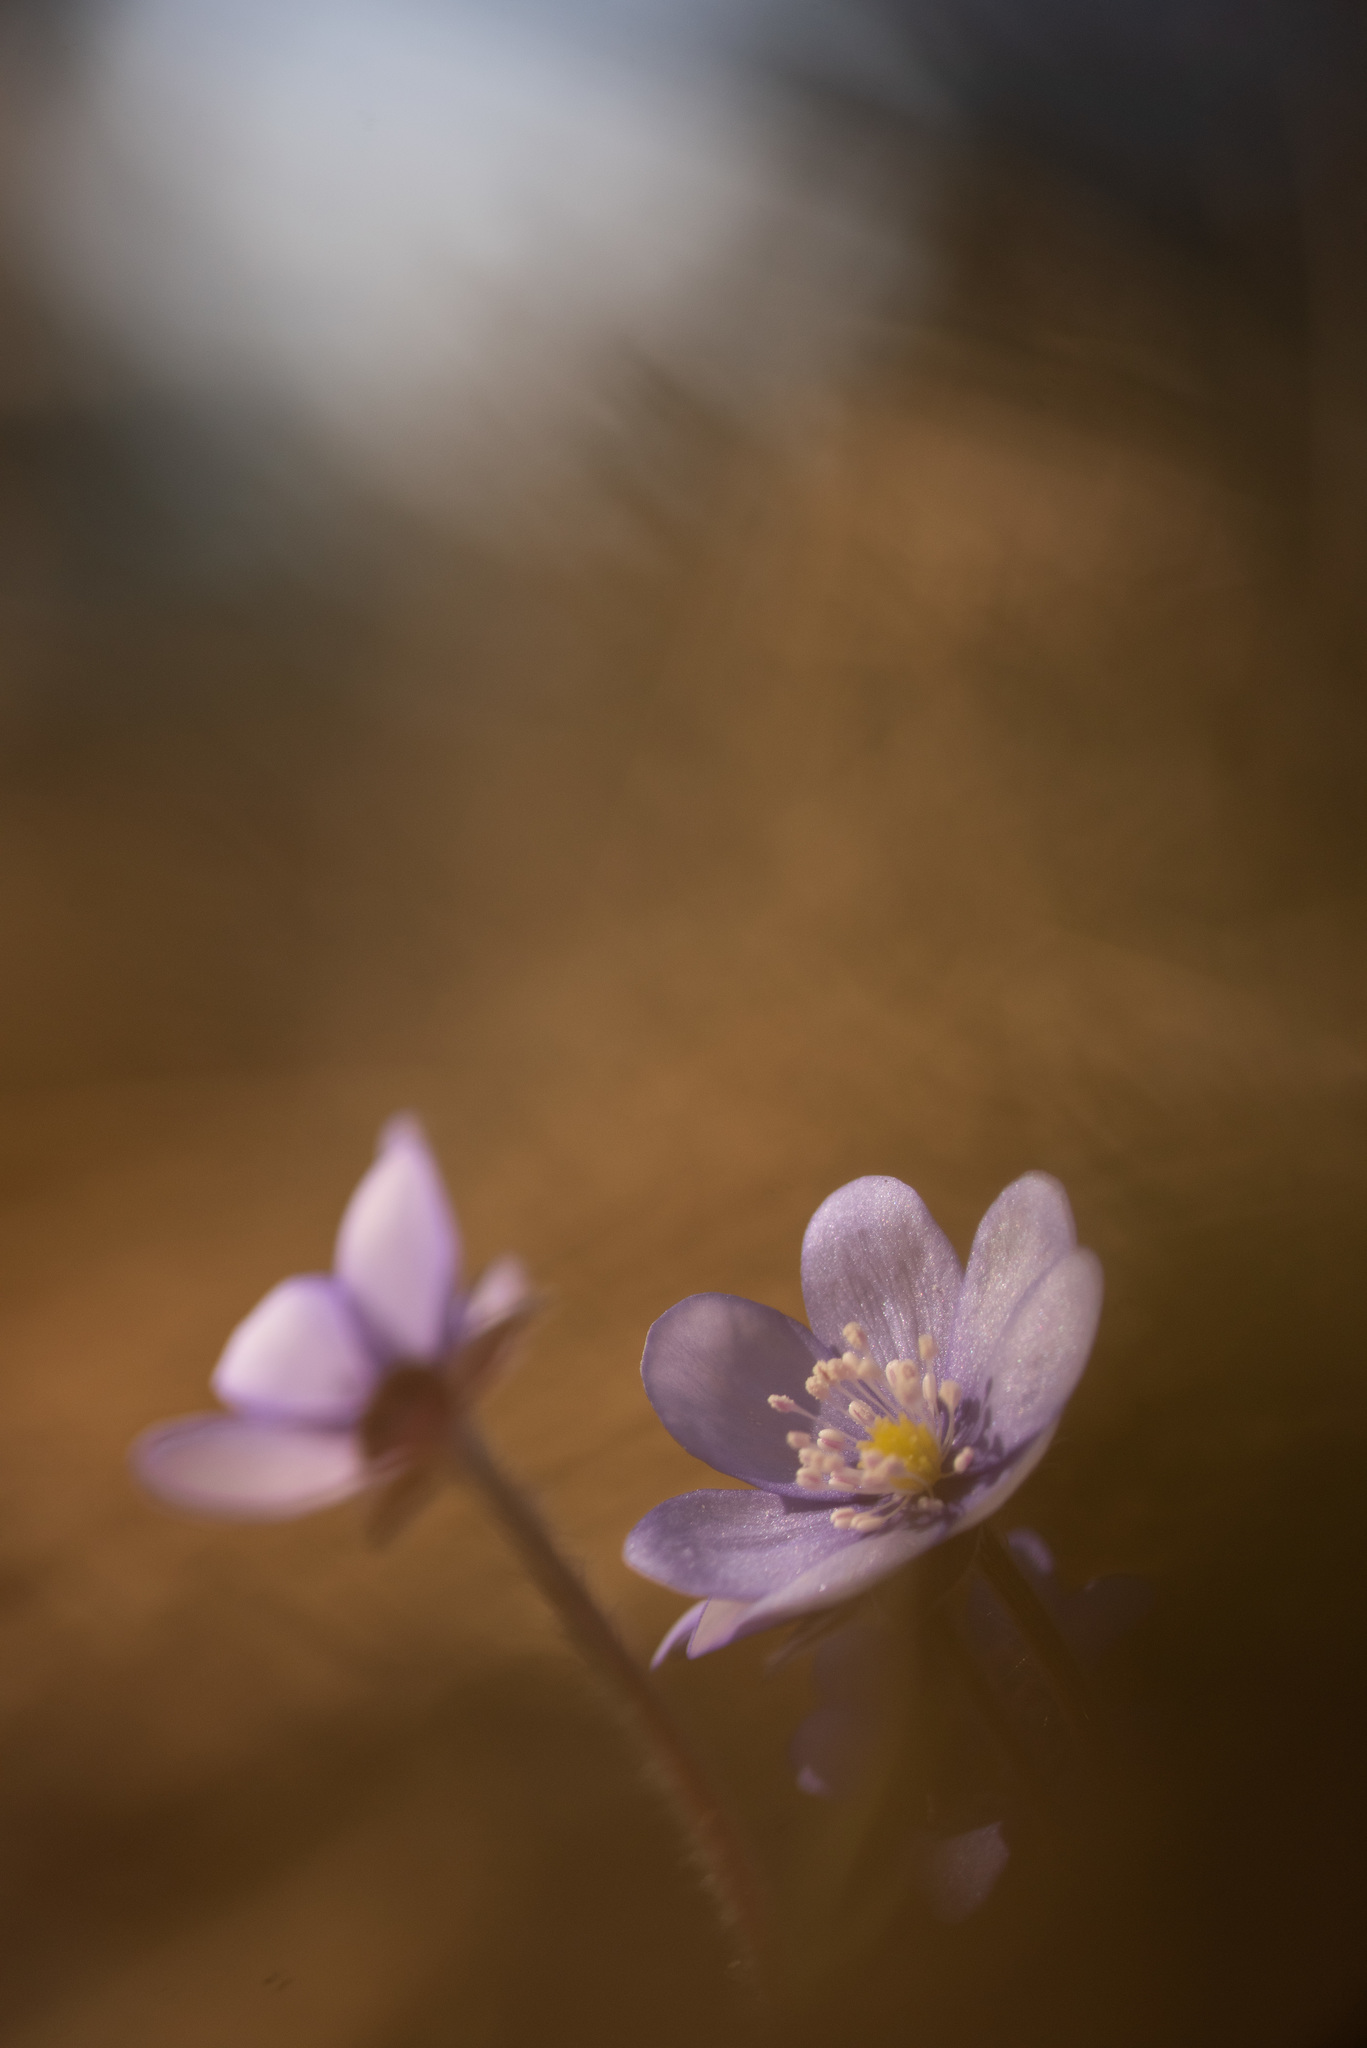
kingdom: Plantae
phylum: Tracheophyta
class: Magnoliopsida
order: Ranunculales
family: Ranunculaceae
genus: Hepatica
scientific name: Hepatica nobilis
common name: Liverleaf
